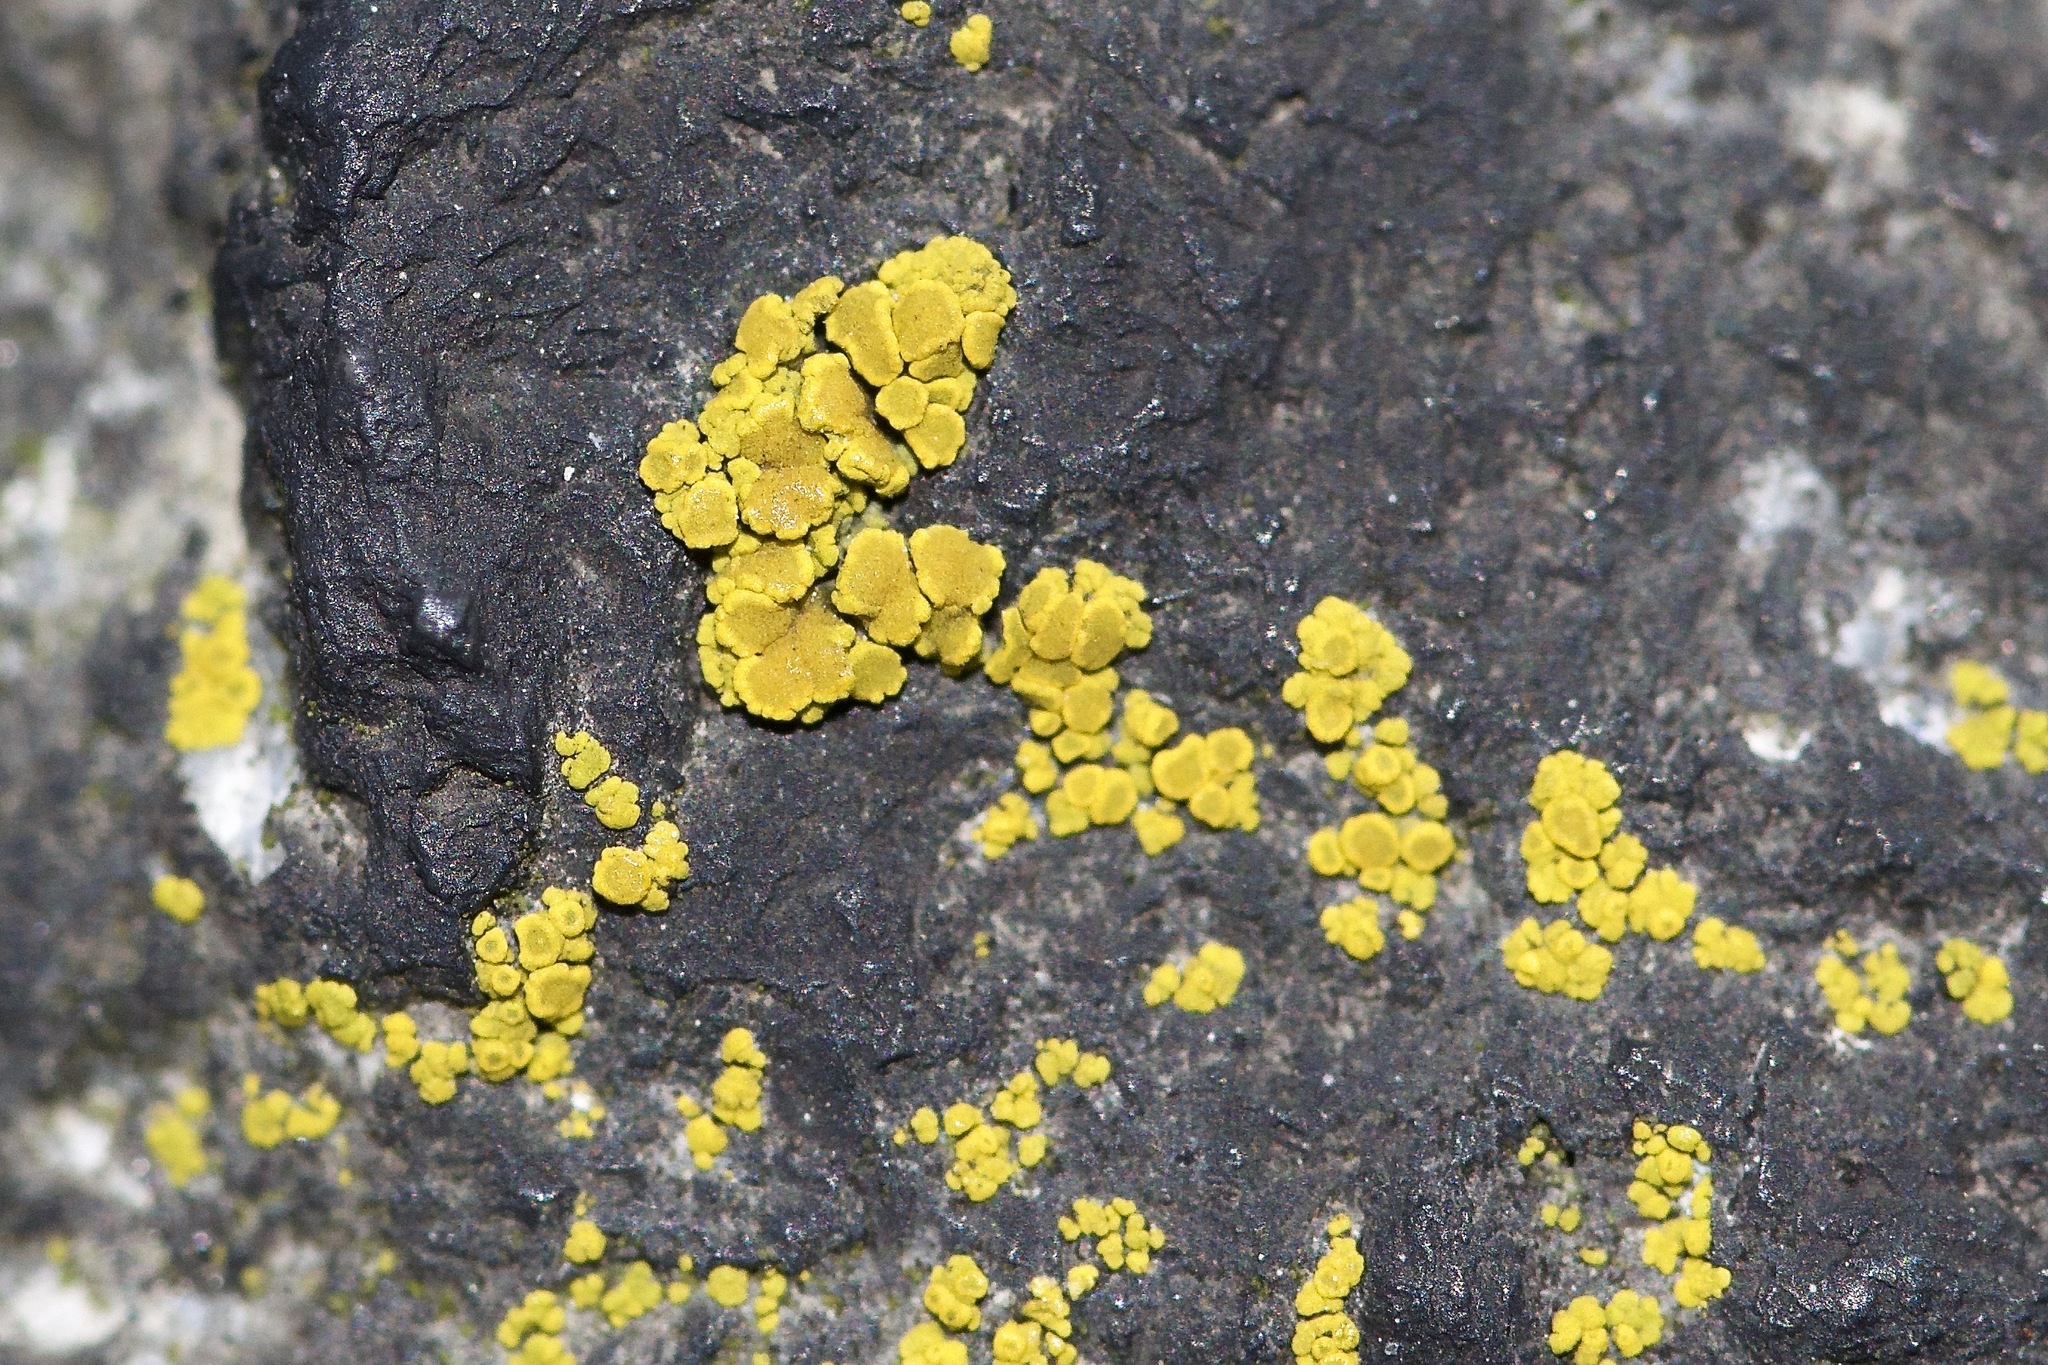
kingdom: Fungi
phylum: Ascomycota
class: Candelariomycetes
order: Candelariales
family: Candelariaceae
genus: Candelariella
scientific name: Candelariella vitellina
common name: Common goldspeck
